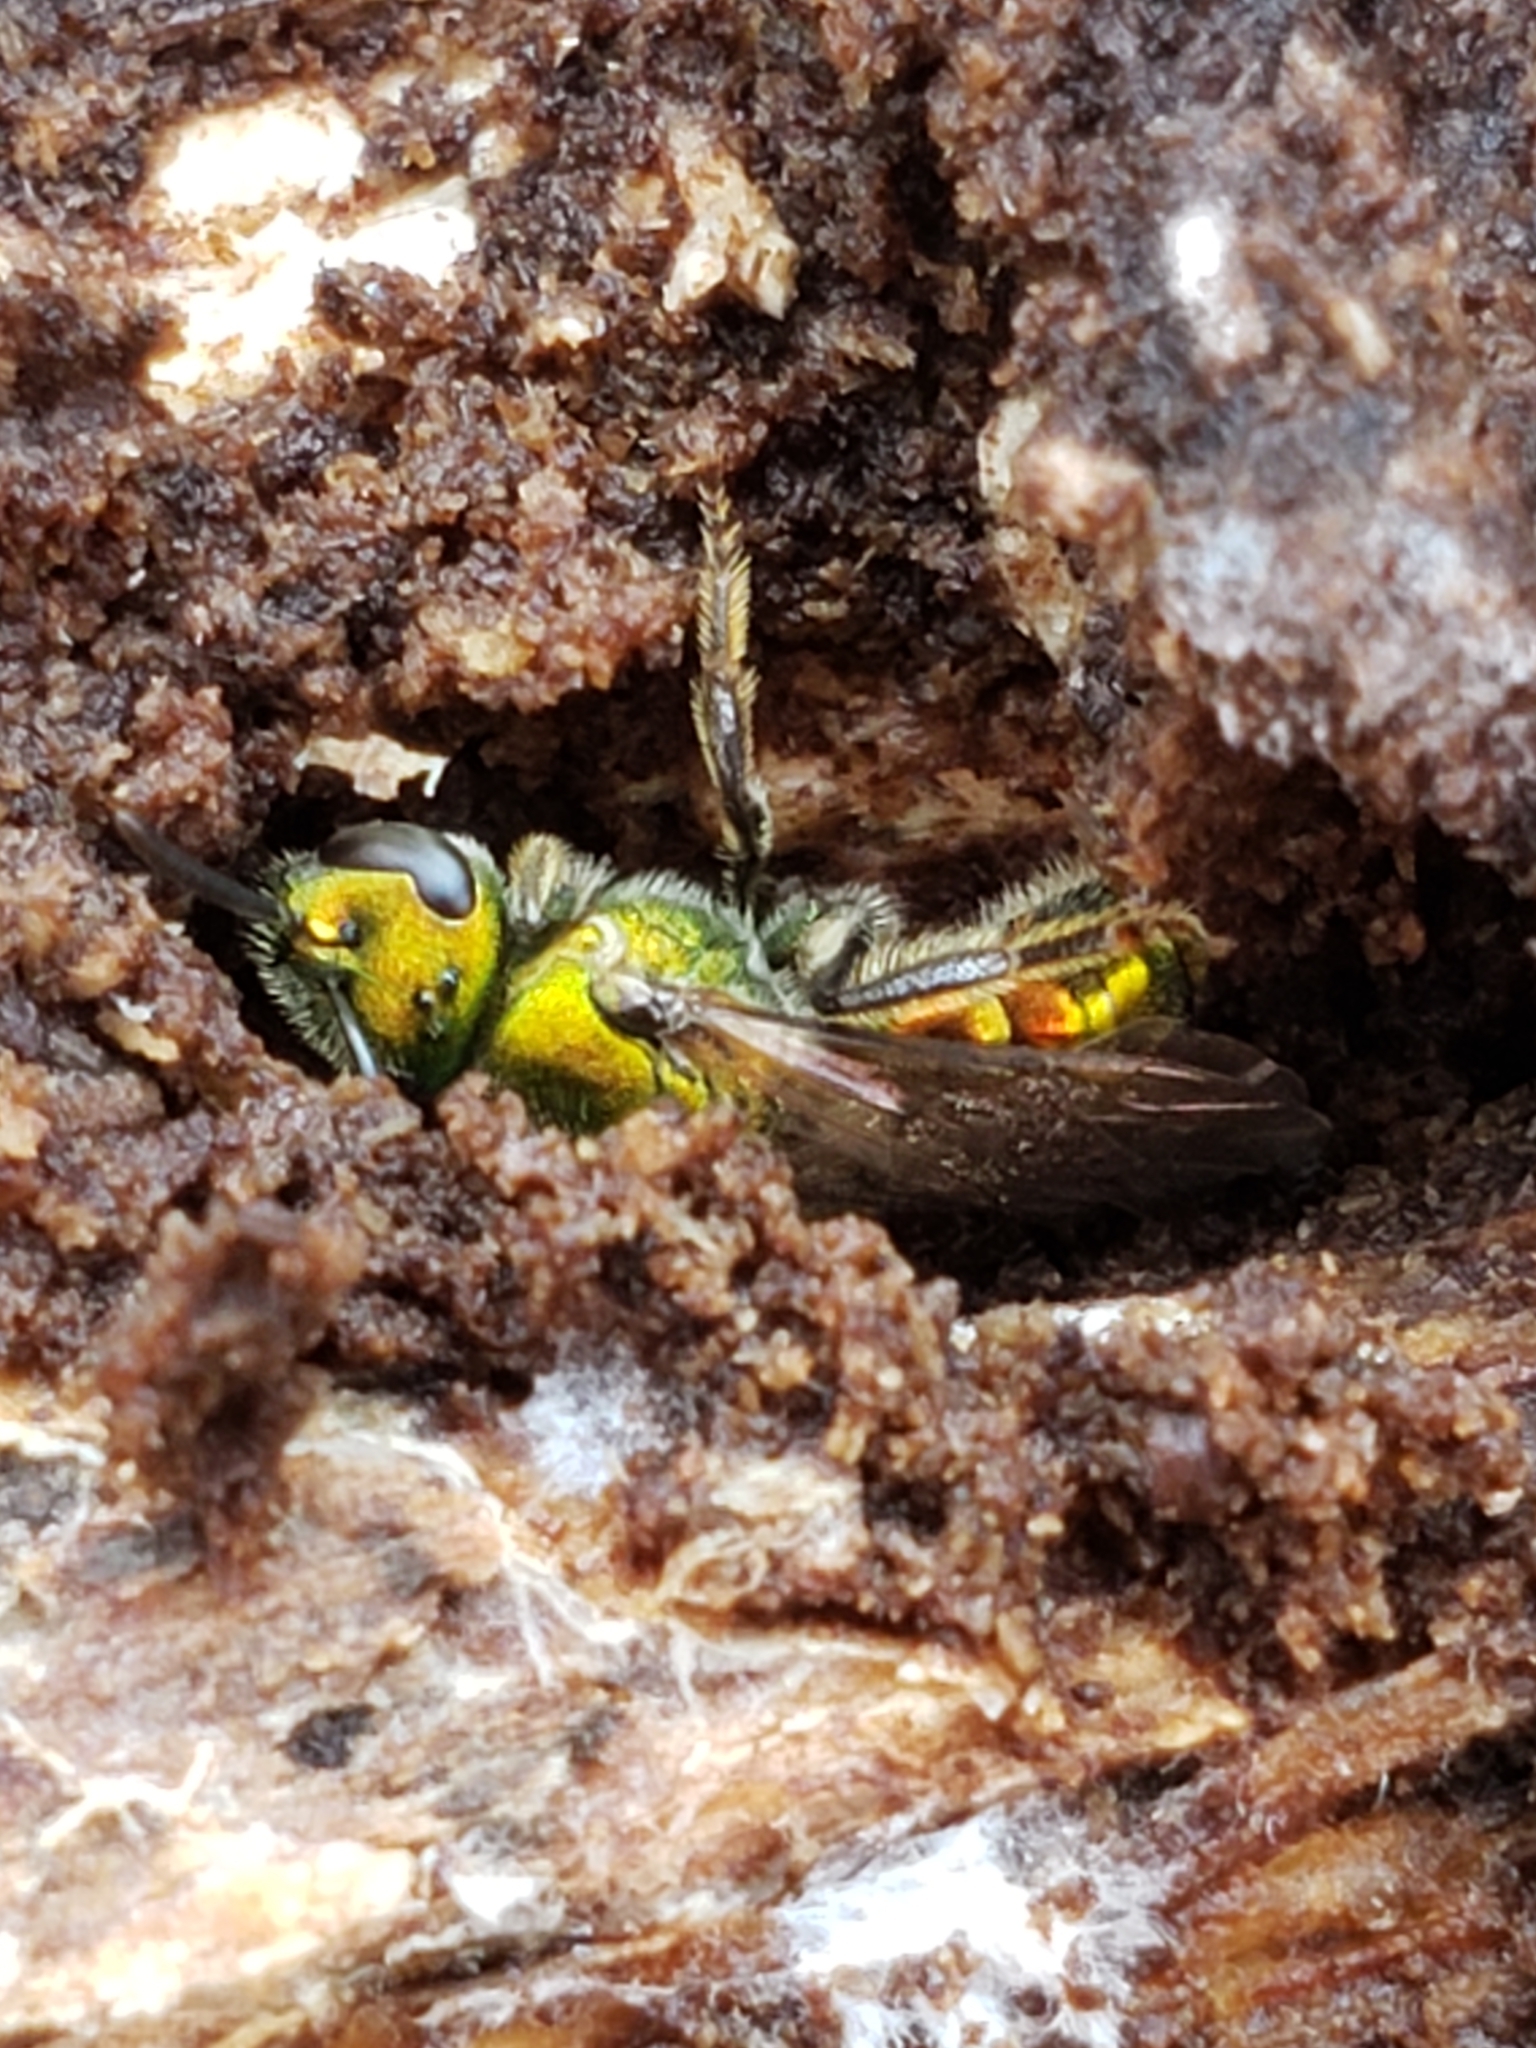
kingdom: Animalia
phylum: Arthropoda
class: Insecta
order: Hymenoptera
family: Halictidae
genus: Augochlora
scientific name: Augochlora pura
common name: Pure green sweat bee
